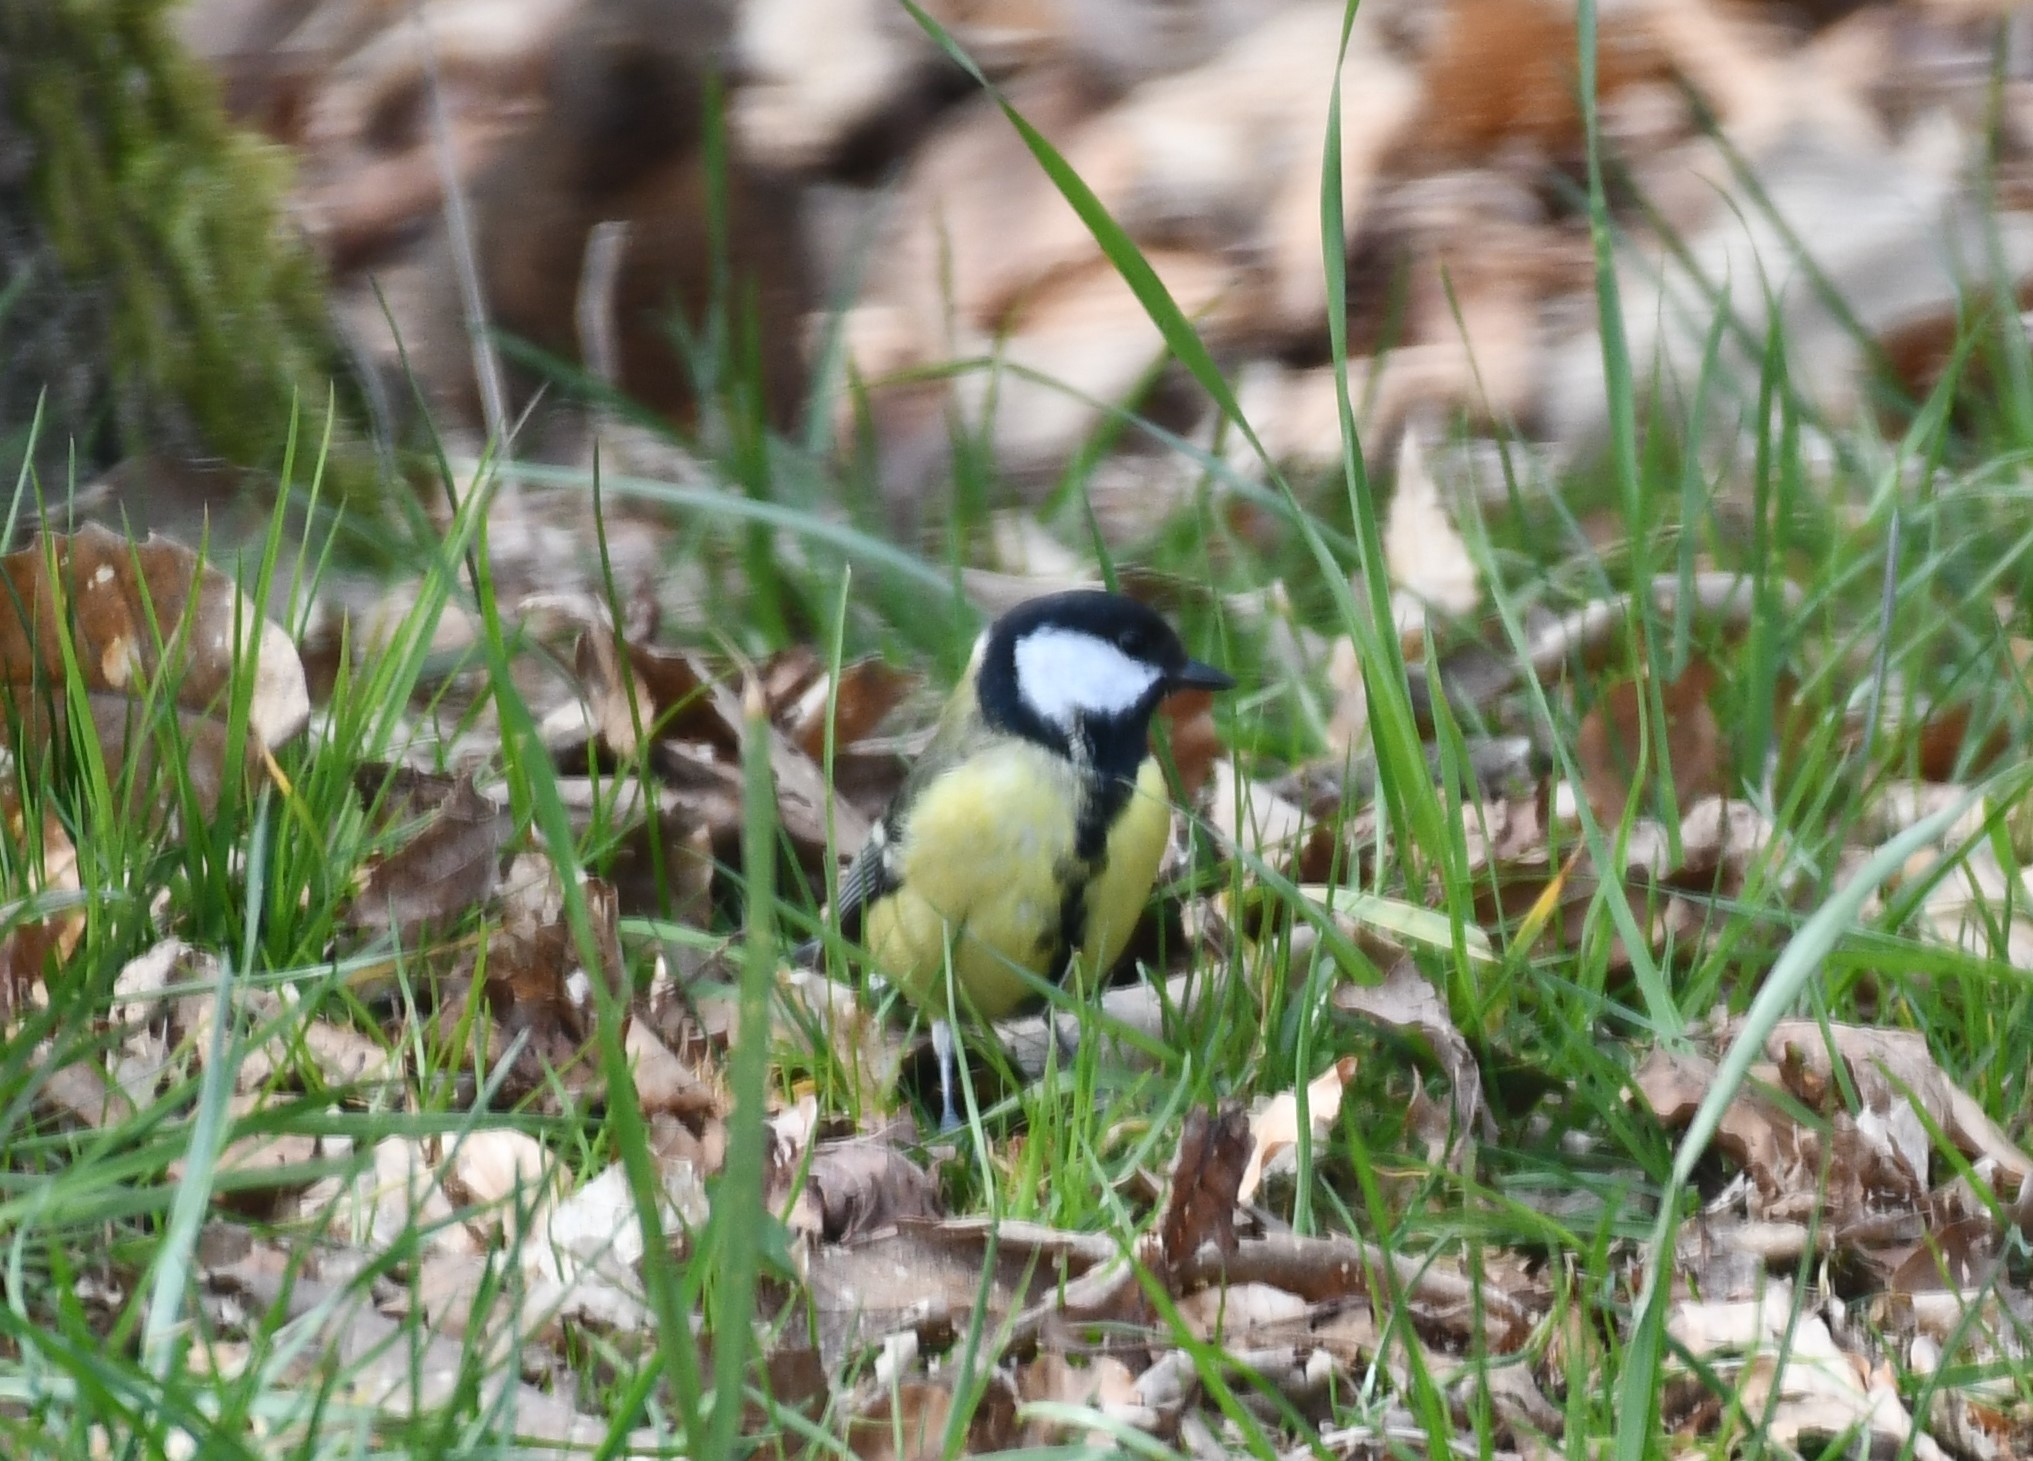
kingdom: Animalia
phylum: Chordata
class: Aves
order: Passeriformes
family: Paridae
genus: Parus
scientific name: Parus major
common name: Great tit
